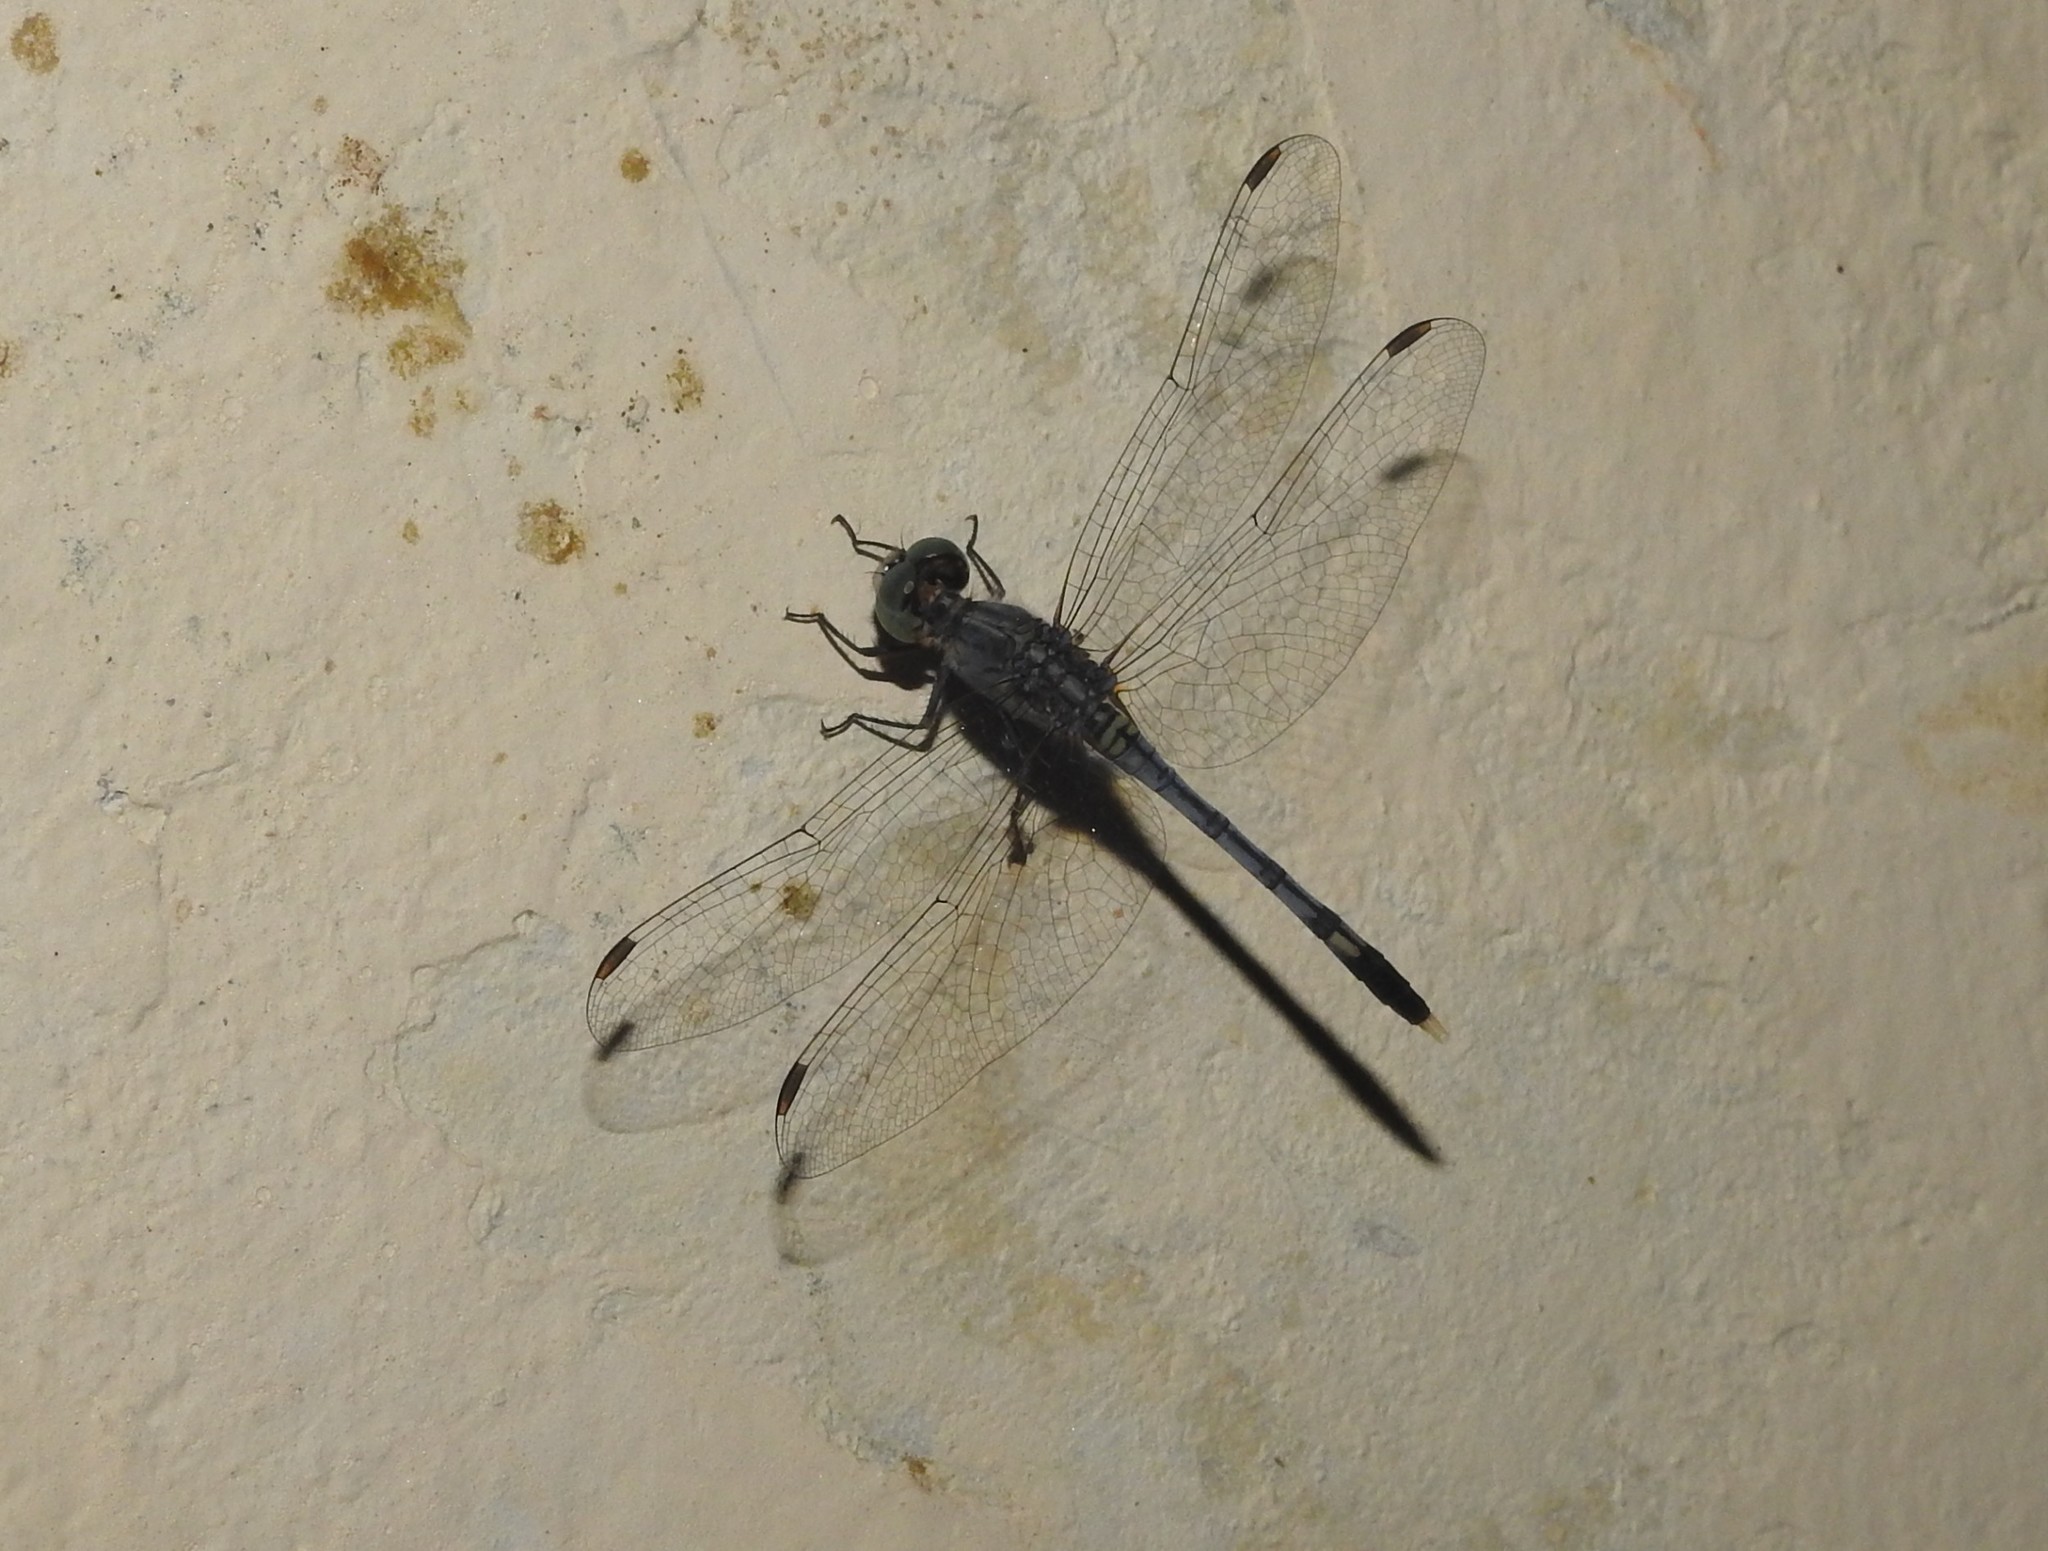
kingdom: Animalia
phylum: Arthropoda
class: Insecta
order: Odonata
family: Libellulidae
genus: Diplacodes
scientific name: Diplacodes trivialis
